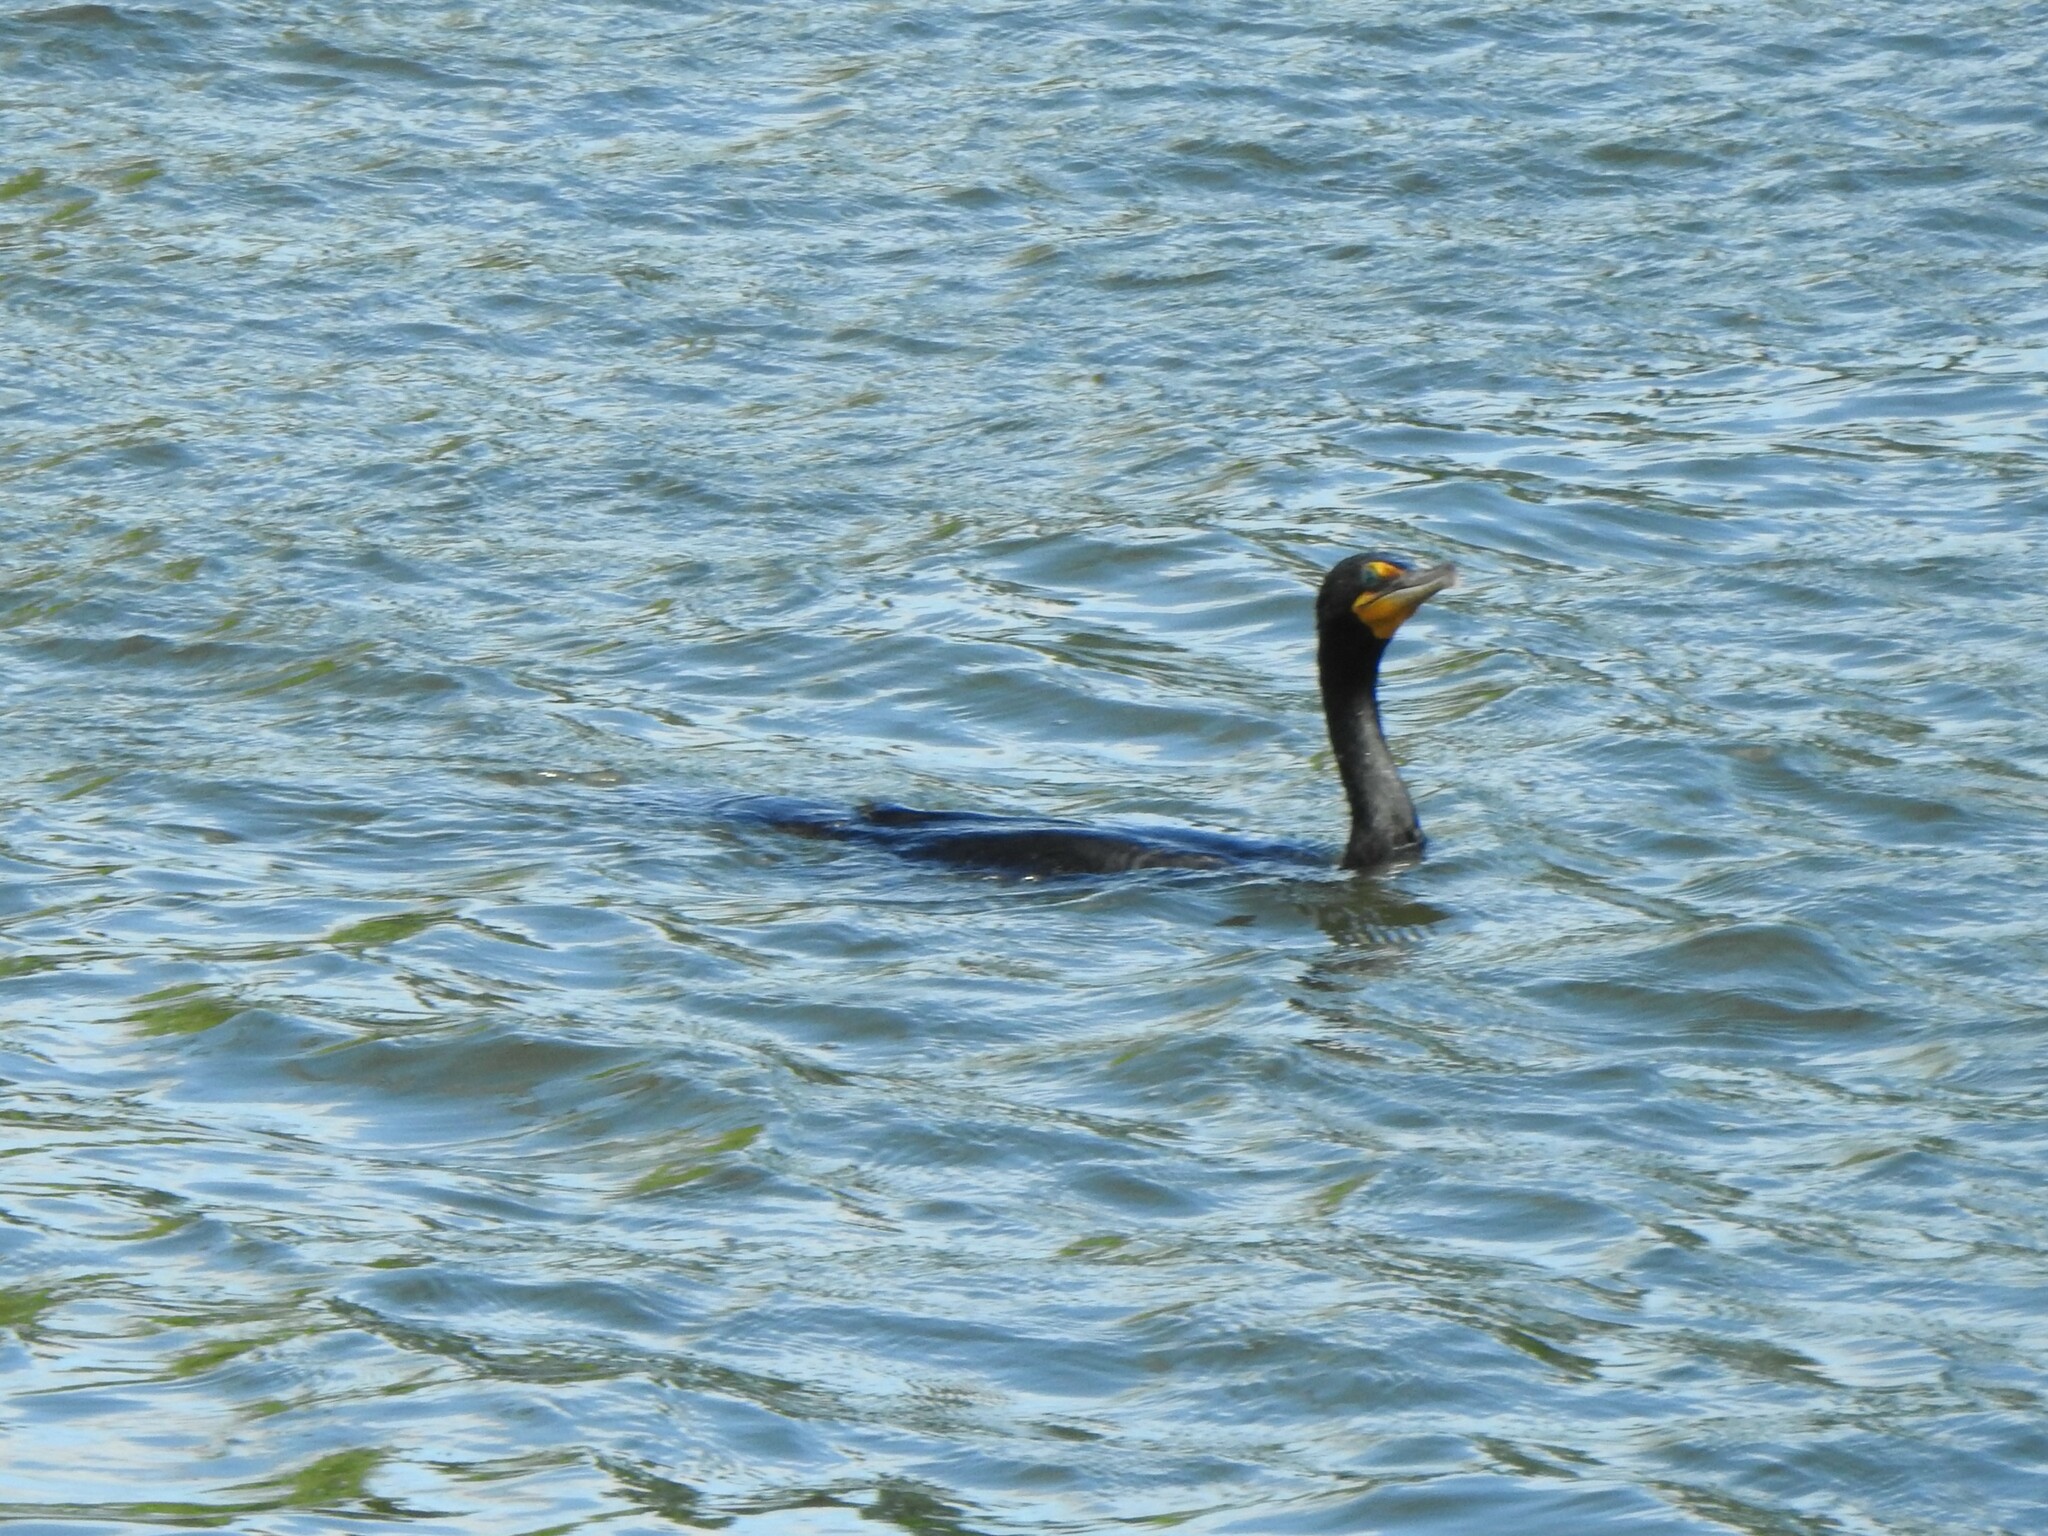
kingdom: Animalia
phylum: Chordata
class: Aves
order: Suliformes
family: Phalacrocoracidae
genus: Phalacrocorax
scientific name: Phalacrocorax auritus
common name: Double-crested cormorant
